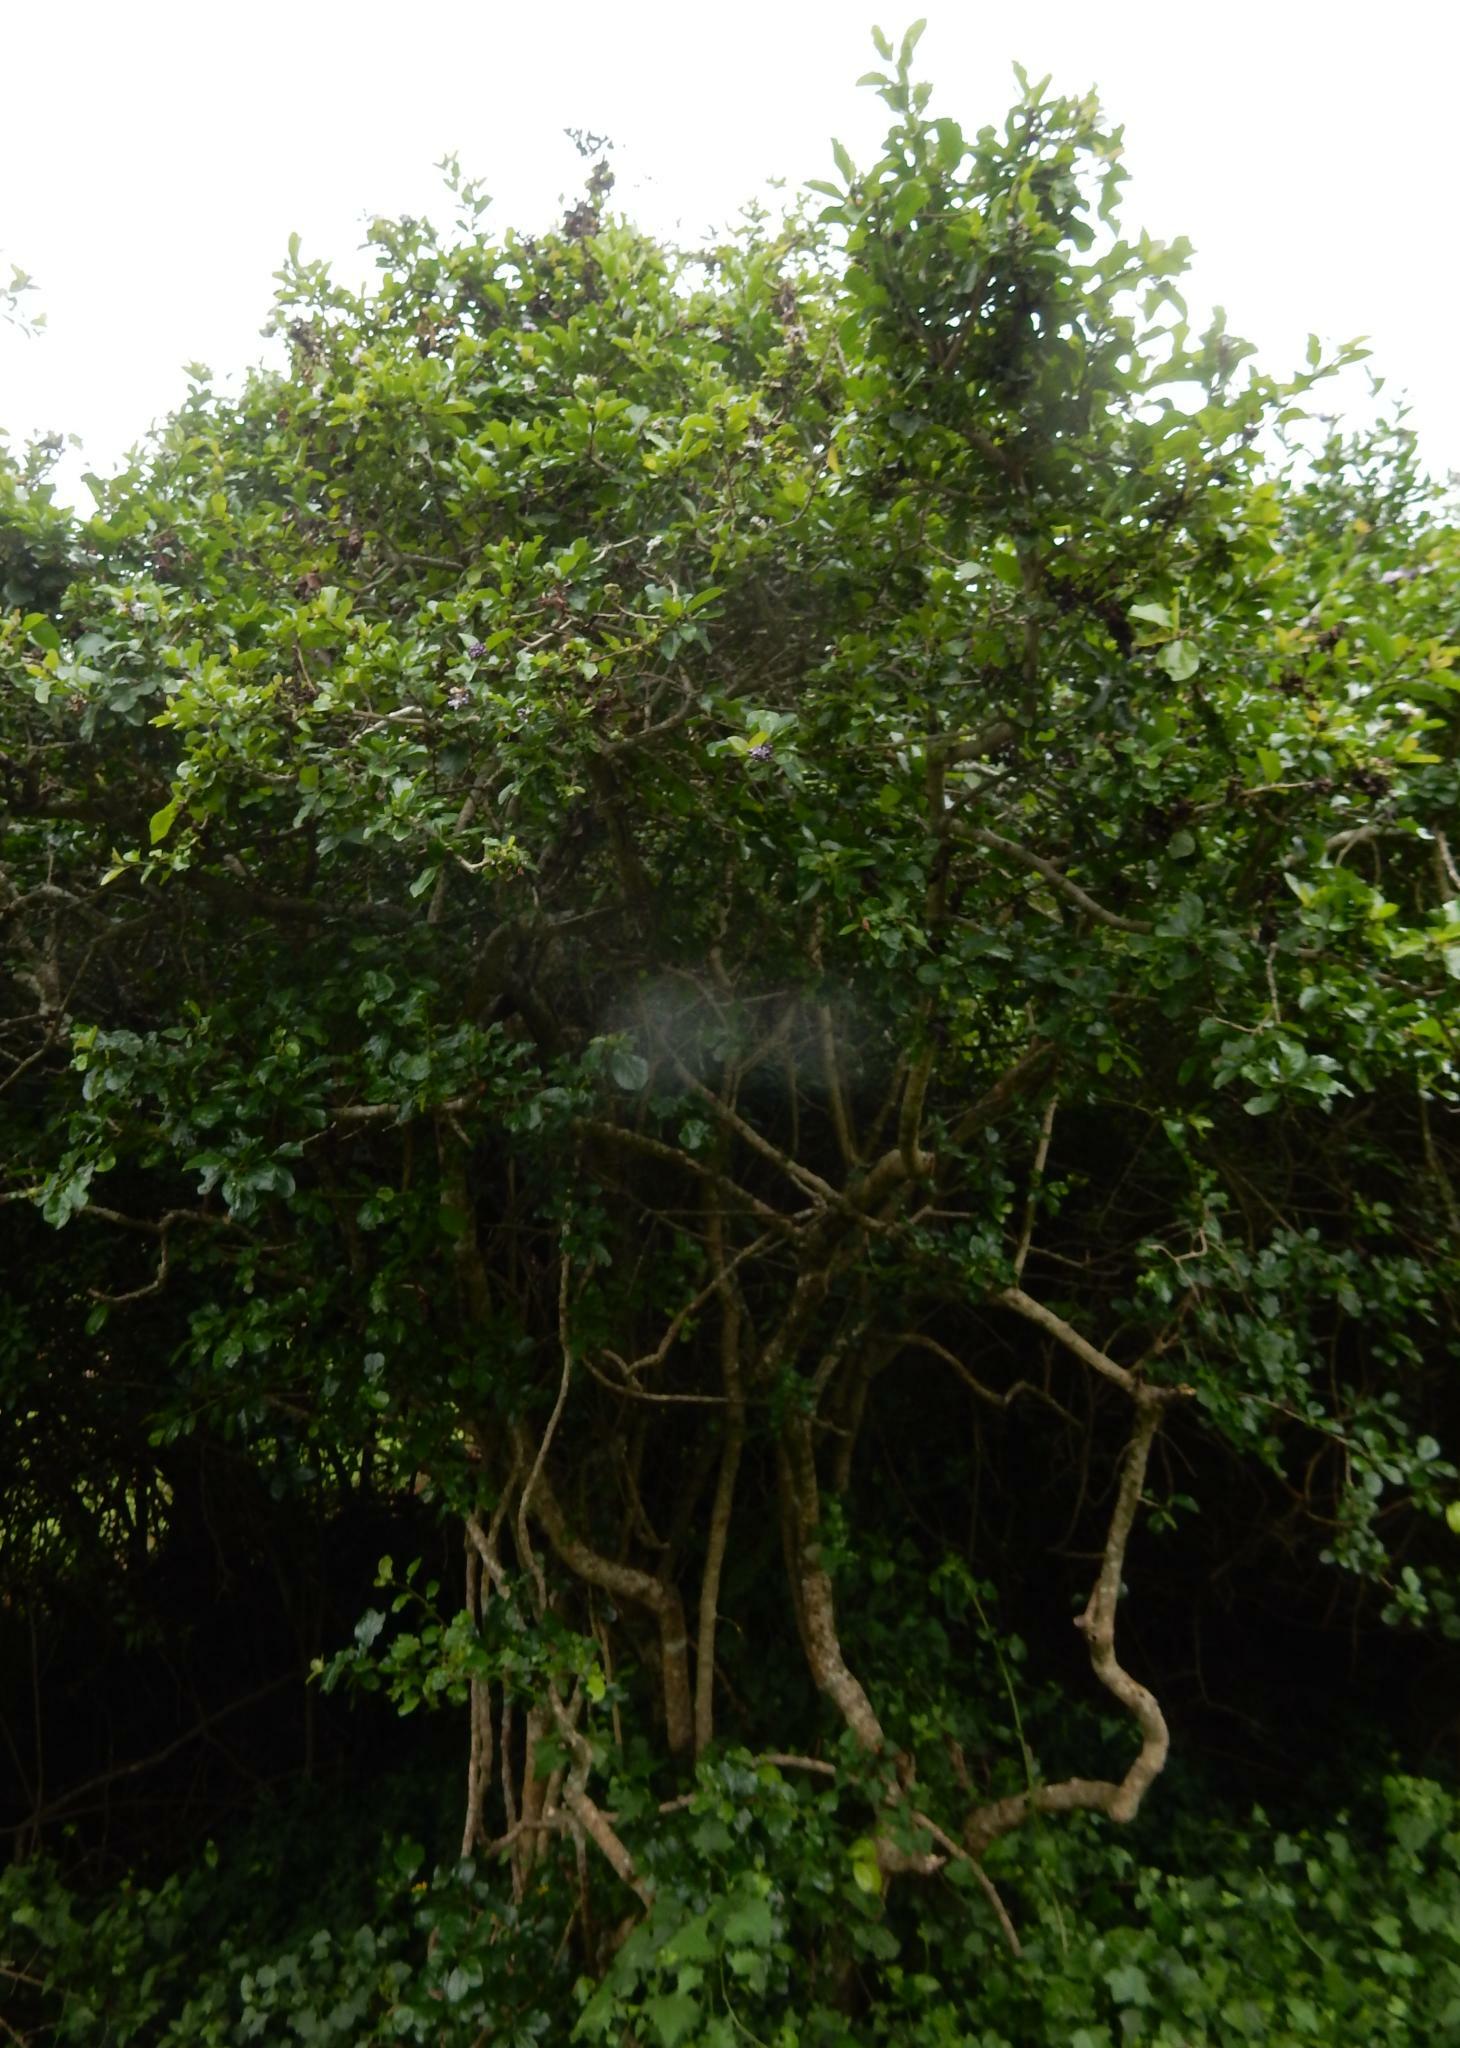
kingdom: Plantae
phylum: Tracheophyta
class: Magnoliopsida
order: Boraginales
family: Ehretiaceae
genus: Ehretia
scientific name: Ehretia rigida
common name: Cape lilac
